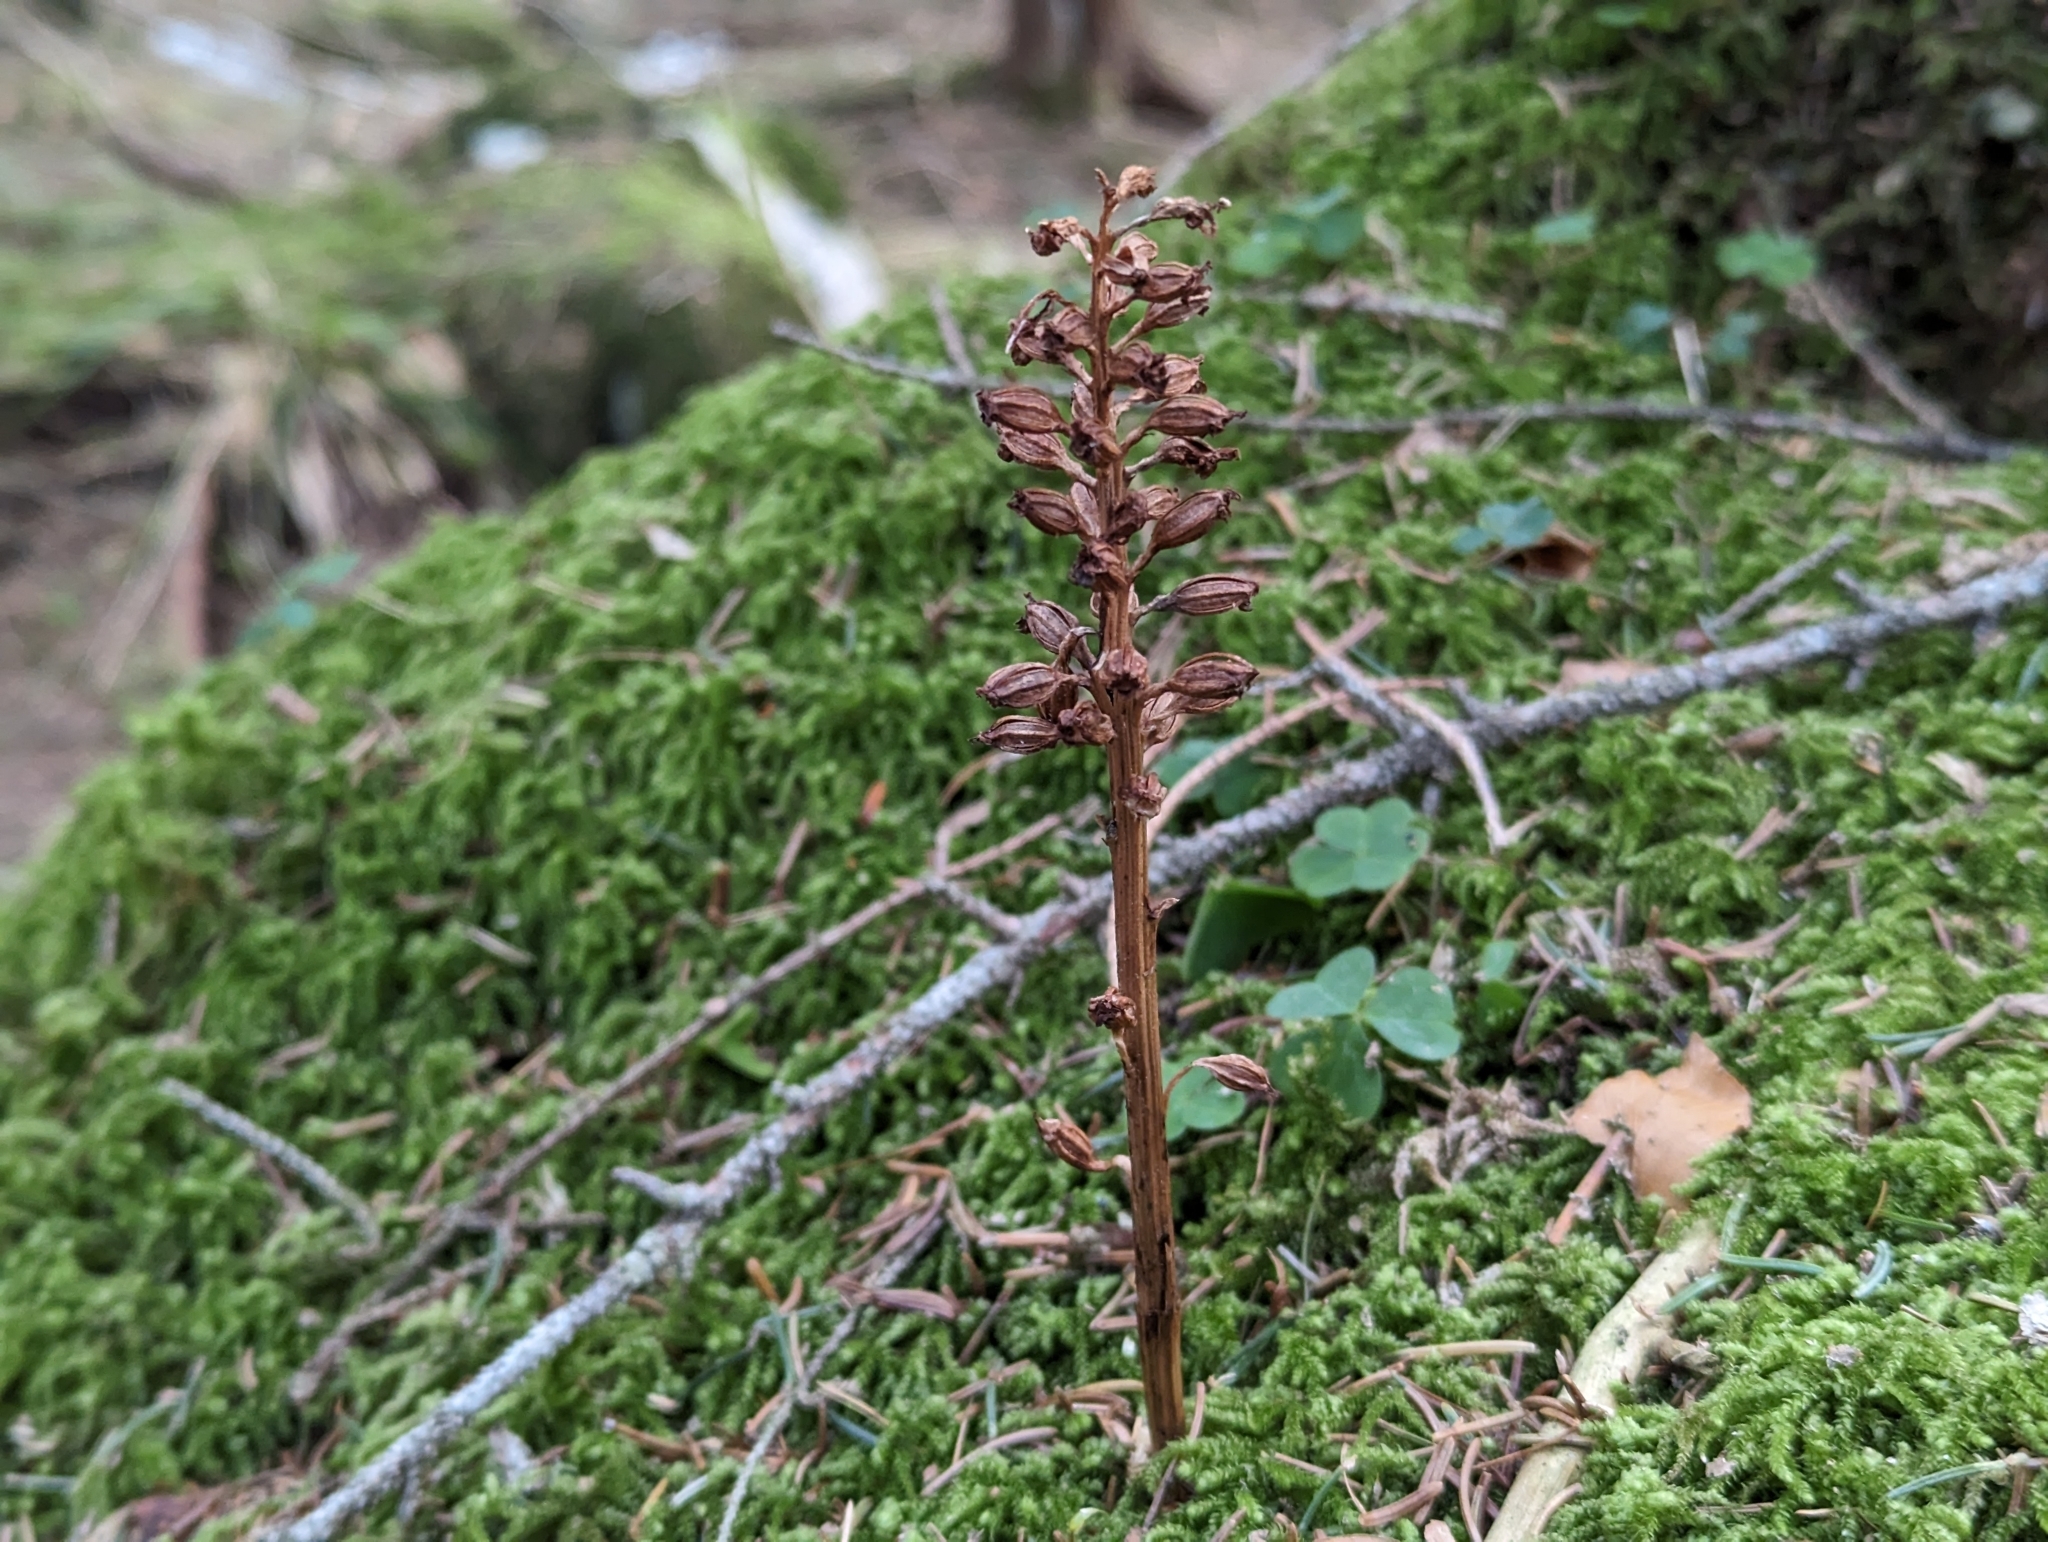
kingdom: Plantae
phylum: Tracheophyta
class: Liliopsida
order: Asparagales
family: Orchidaceae
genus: Neottia
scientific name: Neottia nidus-avis
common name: Bird's-nest orchid
